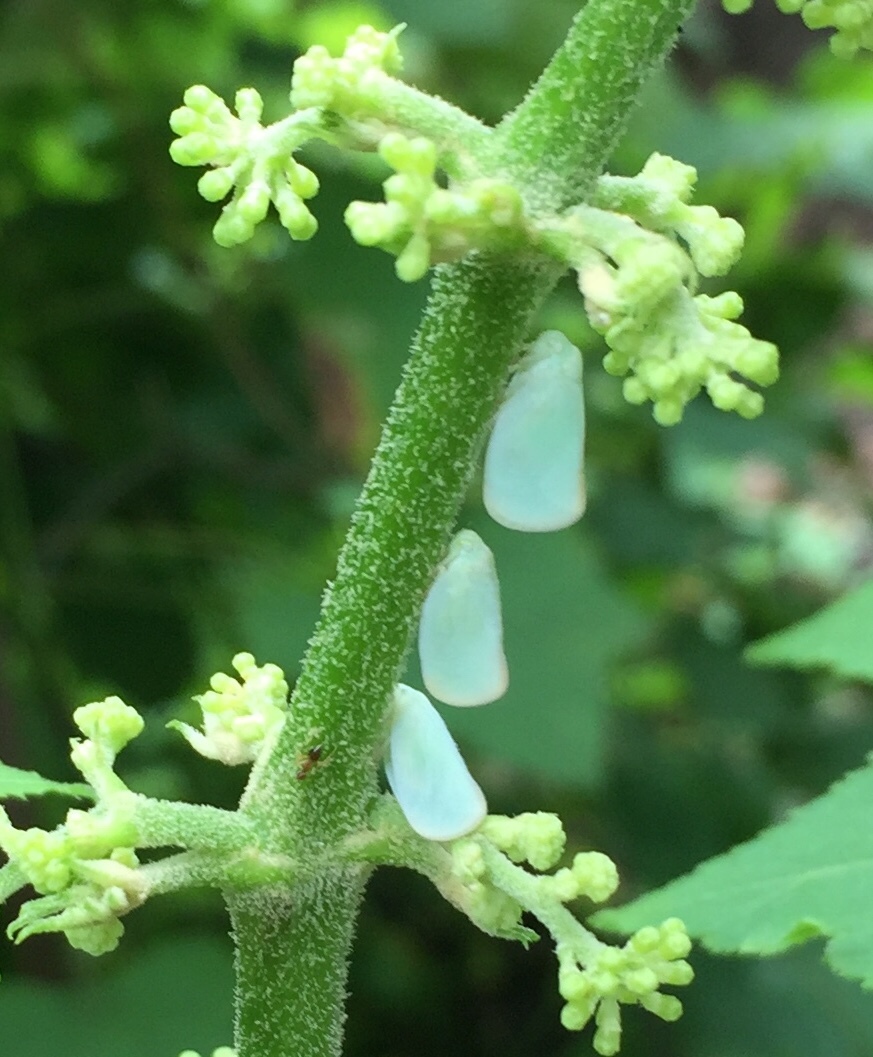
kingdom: Animalia
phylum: Arthropoda
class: Insecta
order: Hemiptera
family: Flatidae
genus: Ormenoides
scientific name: Ormenoides venusta
